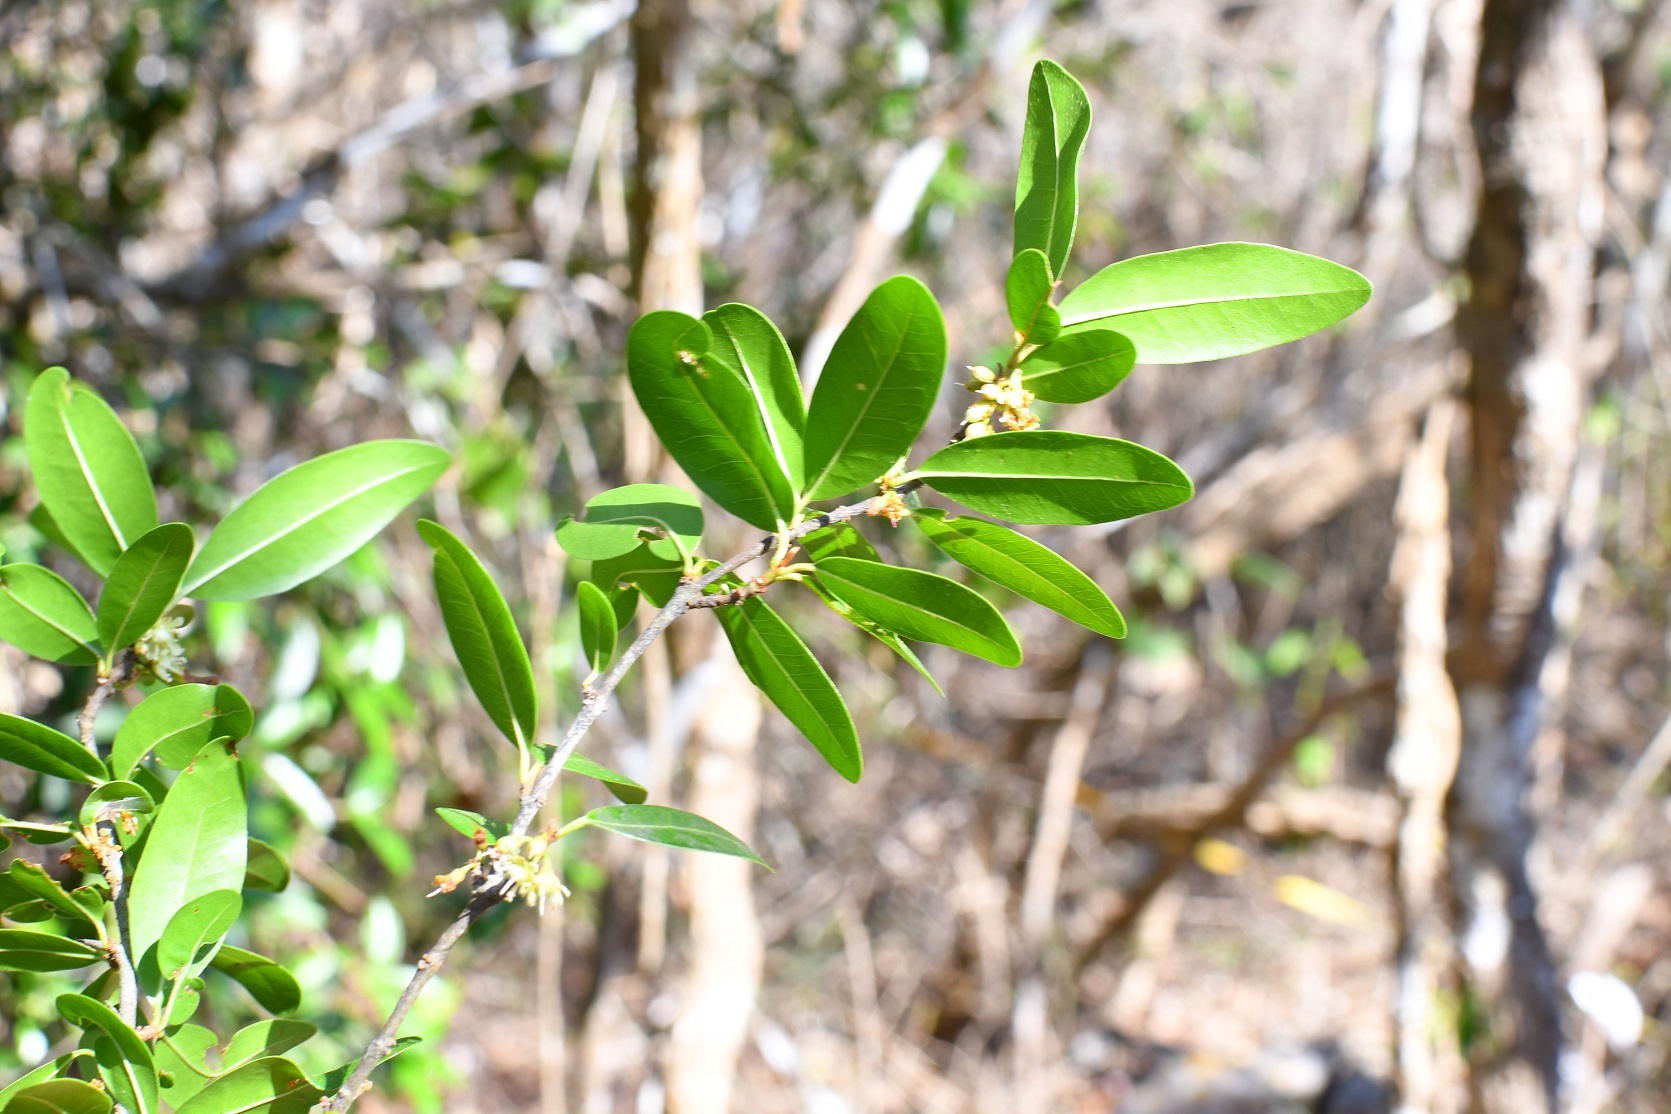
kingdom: Plantae
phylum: Tracheophyta
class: Magnoliopsida
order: Malpighiales
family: Erythroxylaceae
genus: Erythroxylum
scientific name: Erythroxylum mexicanum
